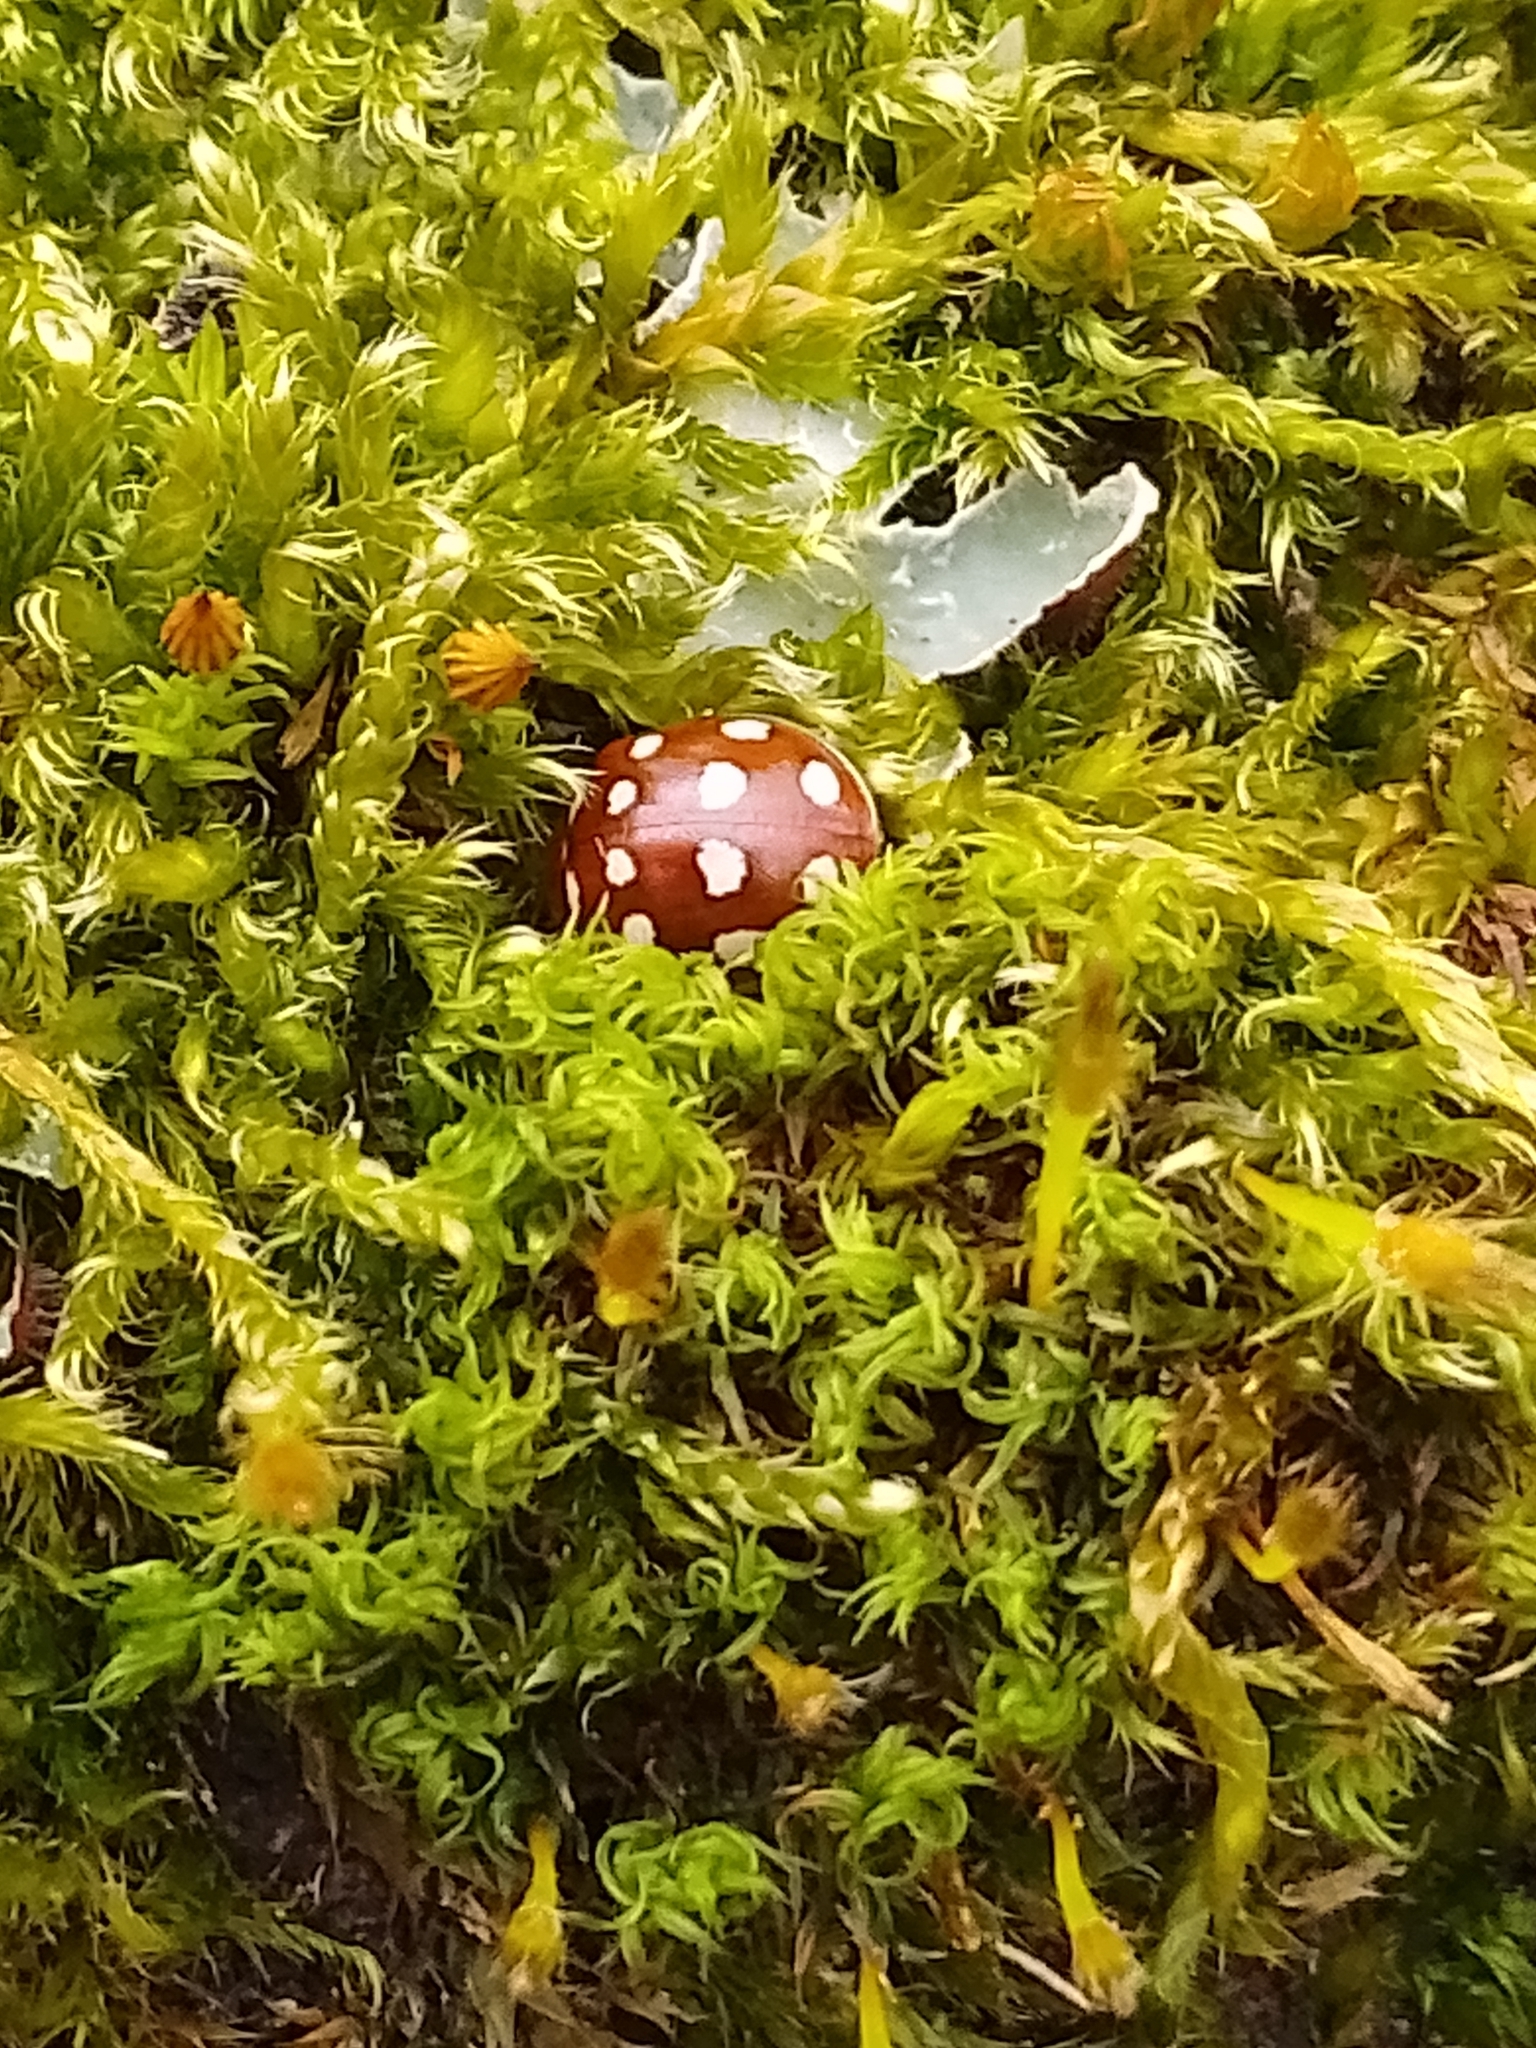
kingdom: Animalia
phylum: Arthropoda
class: Insecta
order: Coleoptera
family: Coccinellidae
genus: Calvia
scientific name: Calvia quatuordecimguttata
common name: Cream-spot ladybird
